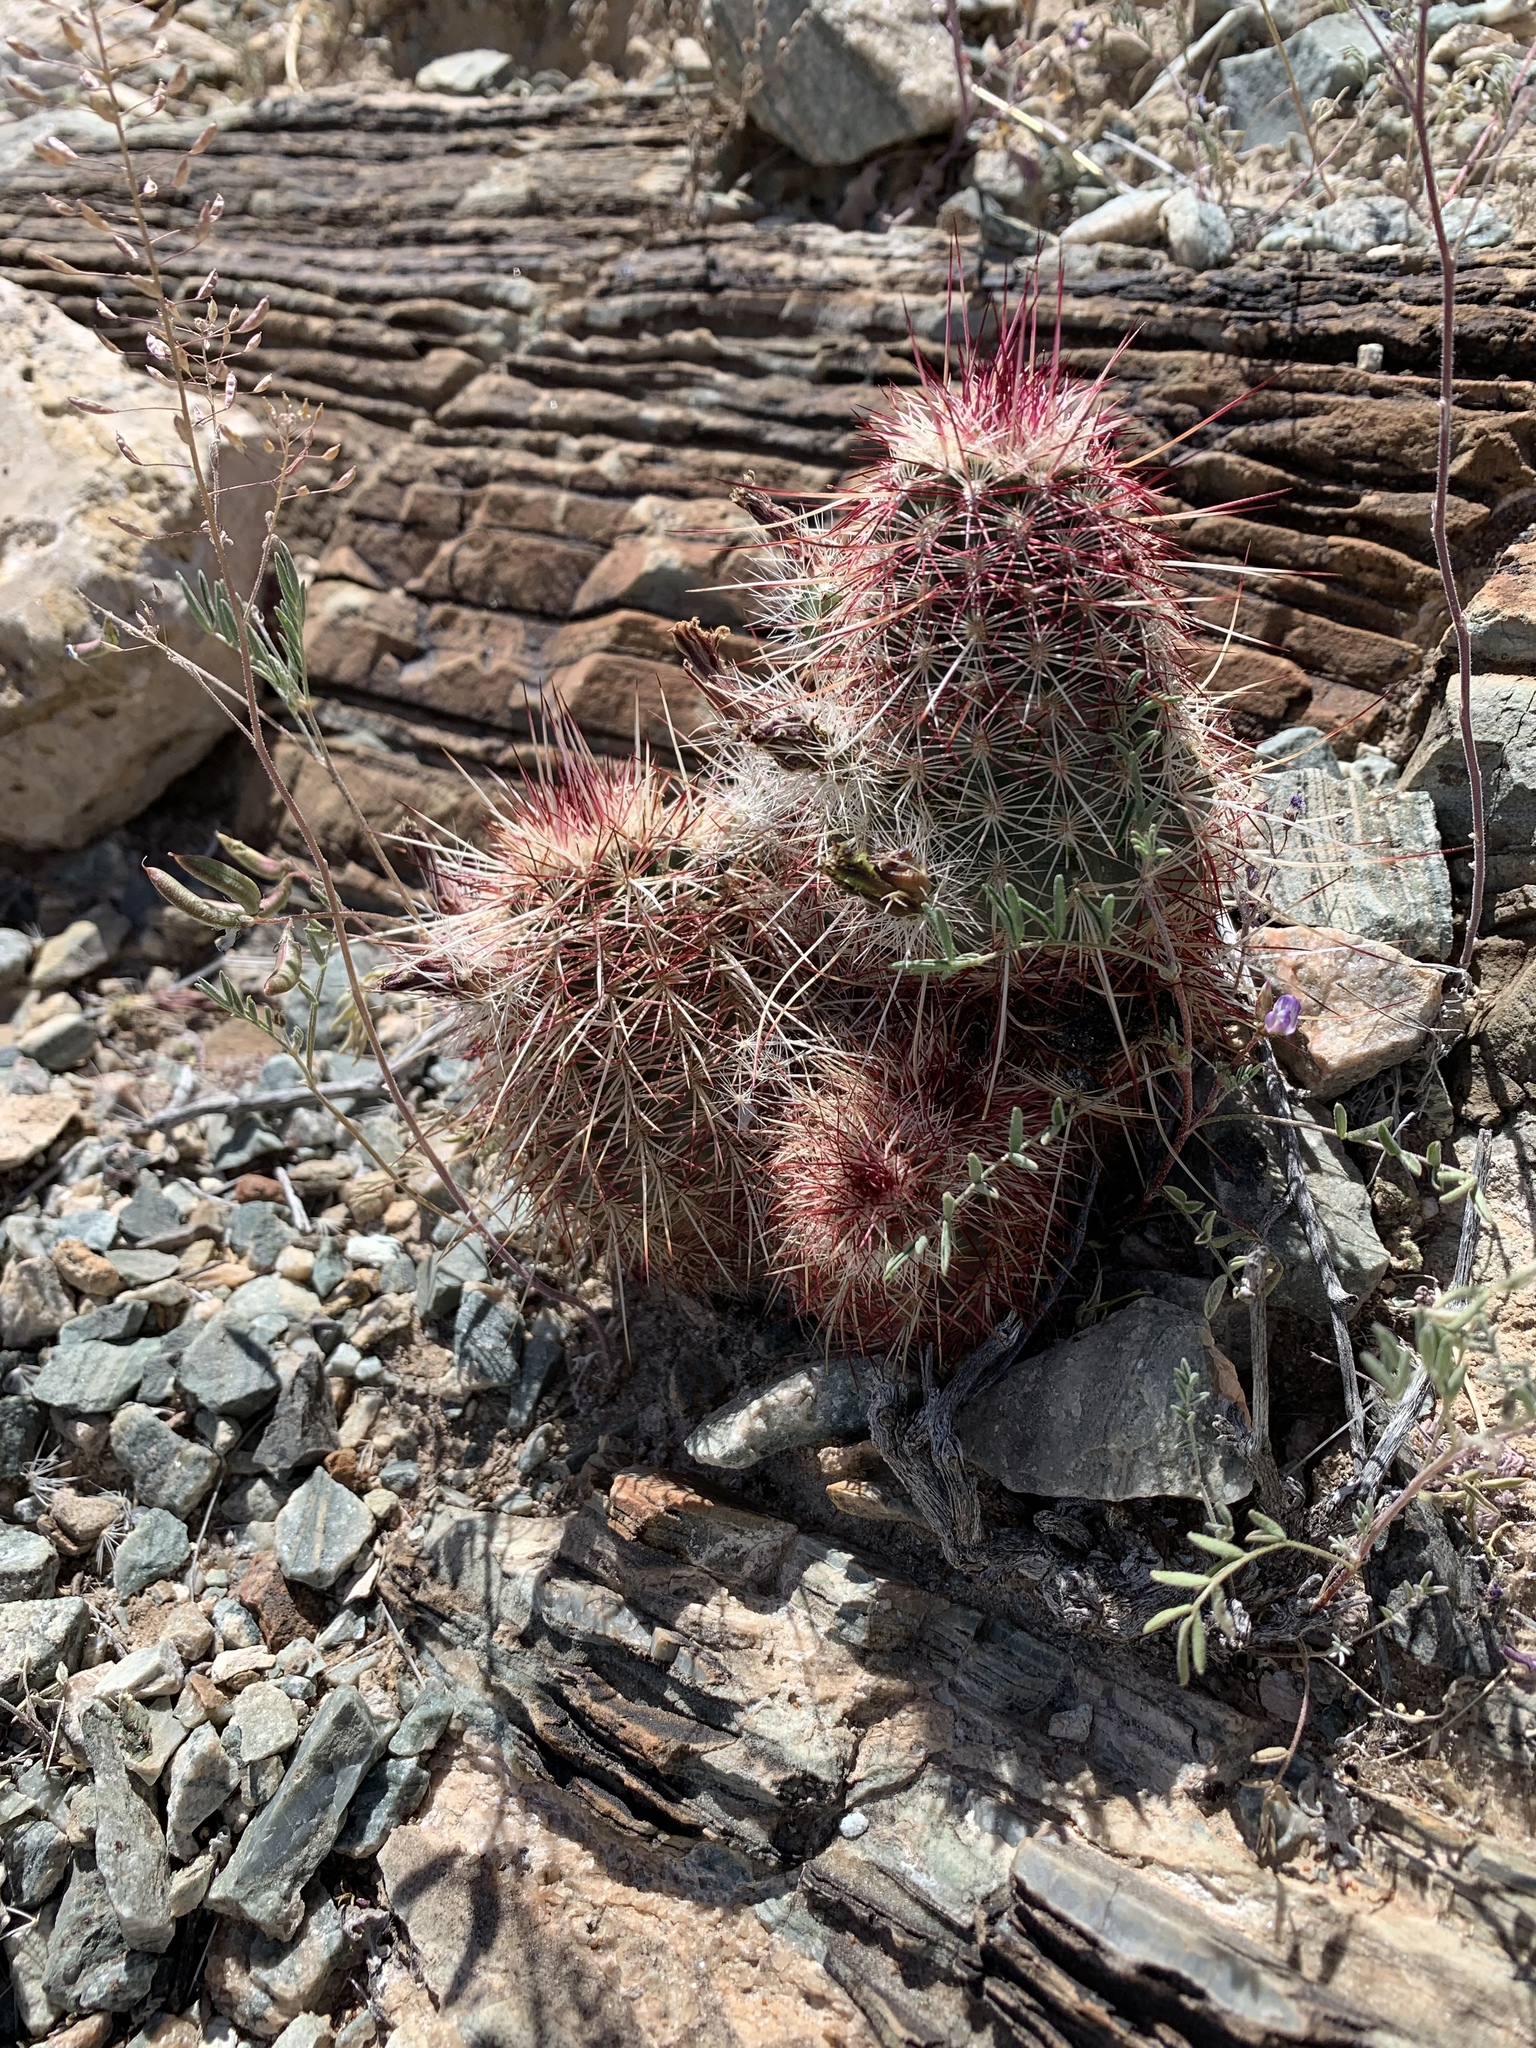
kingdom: Plantae
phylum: Tracheophyta
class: Magnoliopsida
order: Caryophyllales
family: Cactaceae
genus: Echinocereus
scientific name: Echinocereus viridiflorus
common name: Nylon hedgehog cactus
